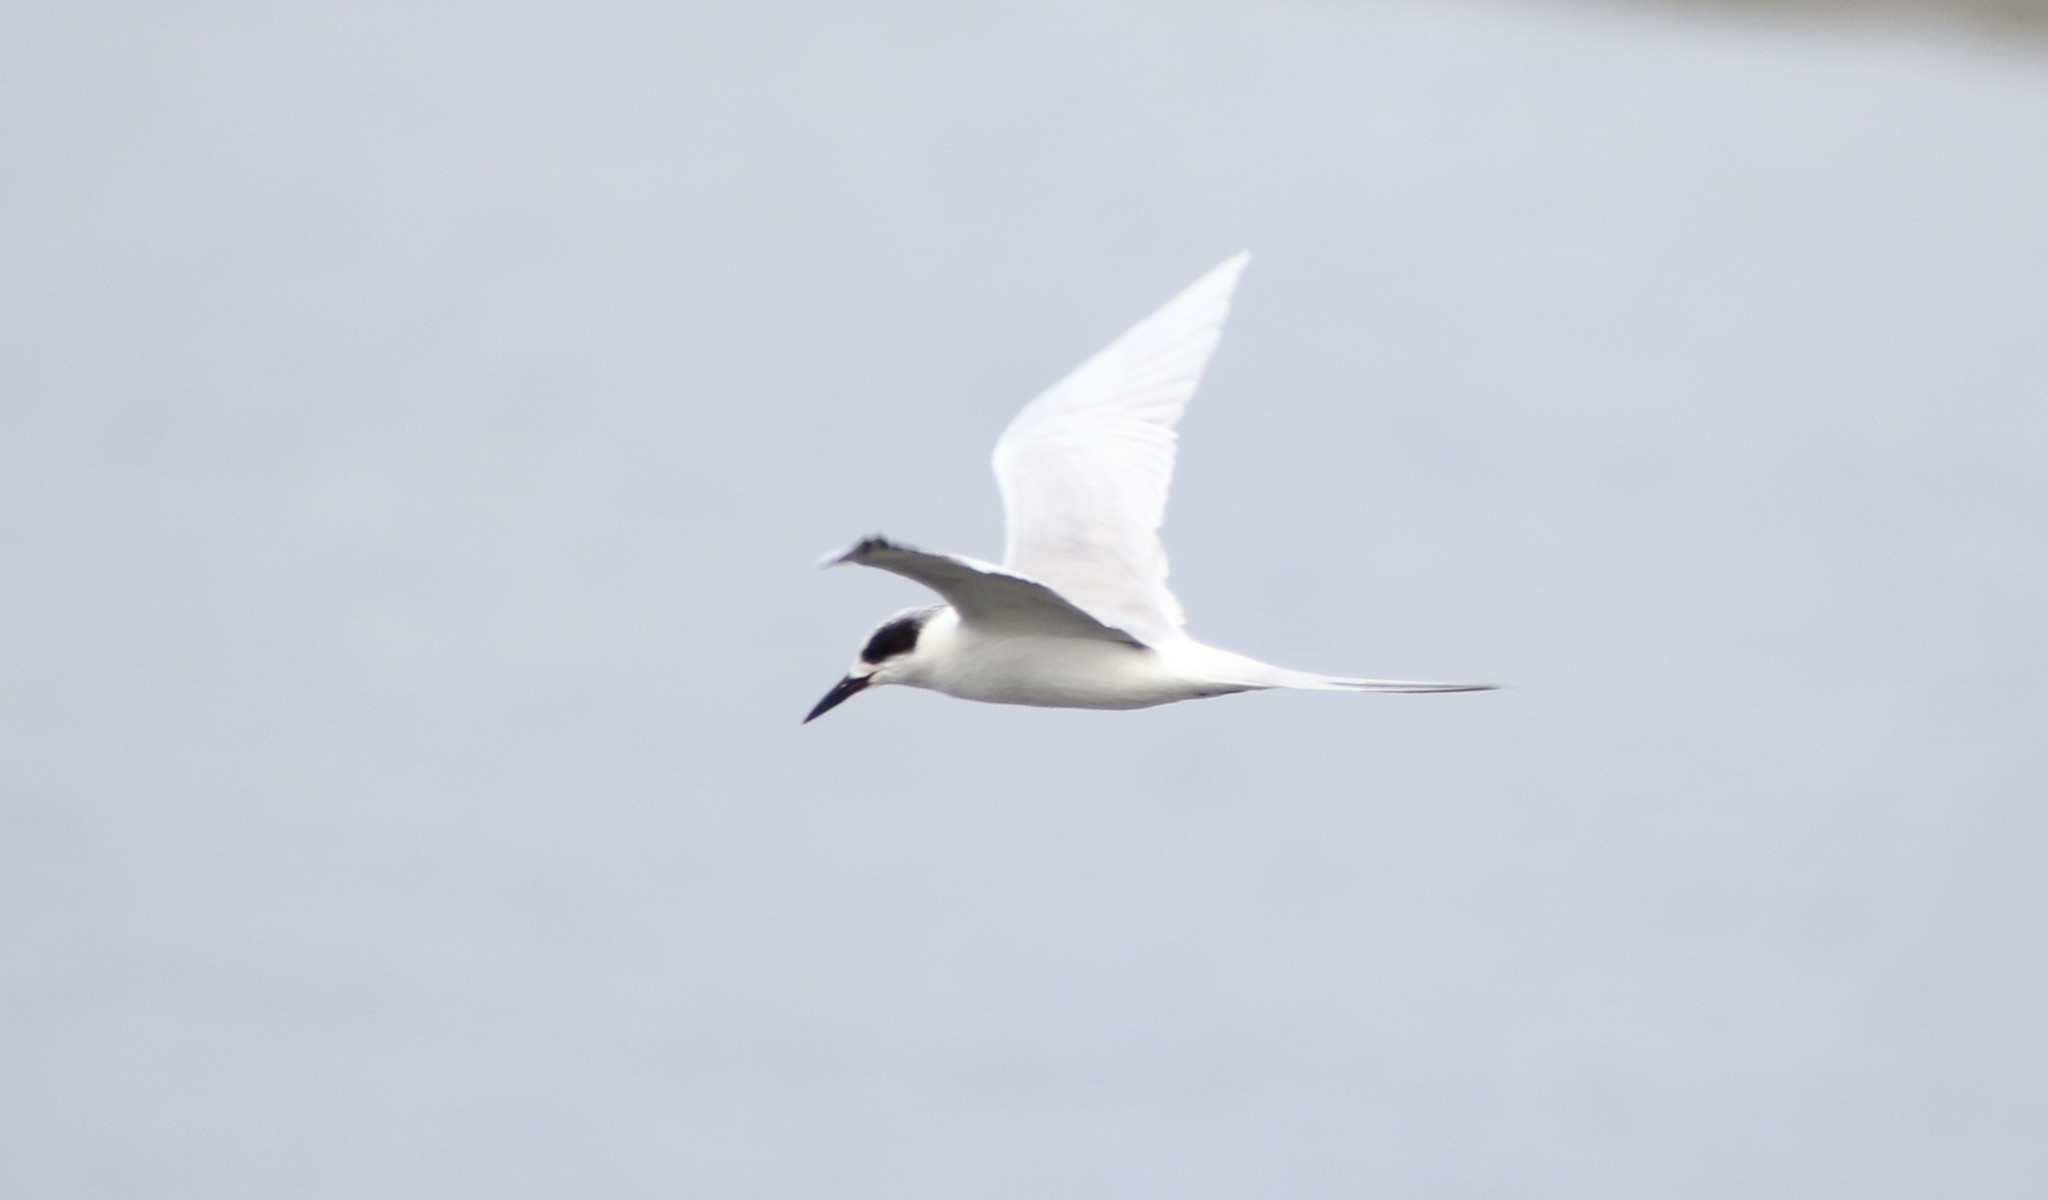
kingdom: Animalia
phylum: Chordata
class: Aves
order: Charadriiformes
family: Laridae
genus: Sterna
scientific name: Sterna forsteri
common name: Forster's tern
